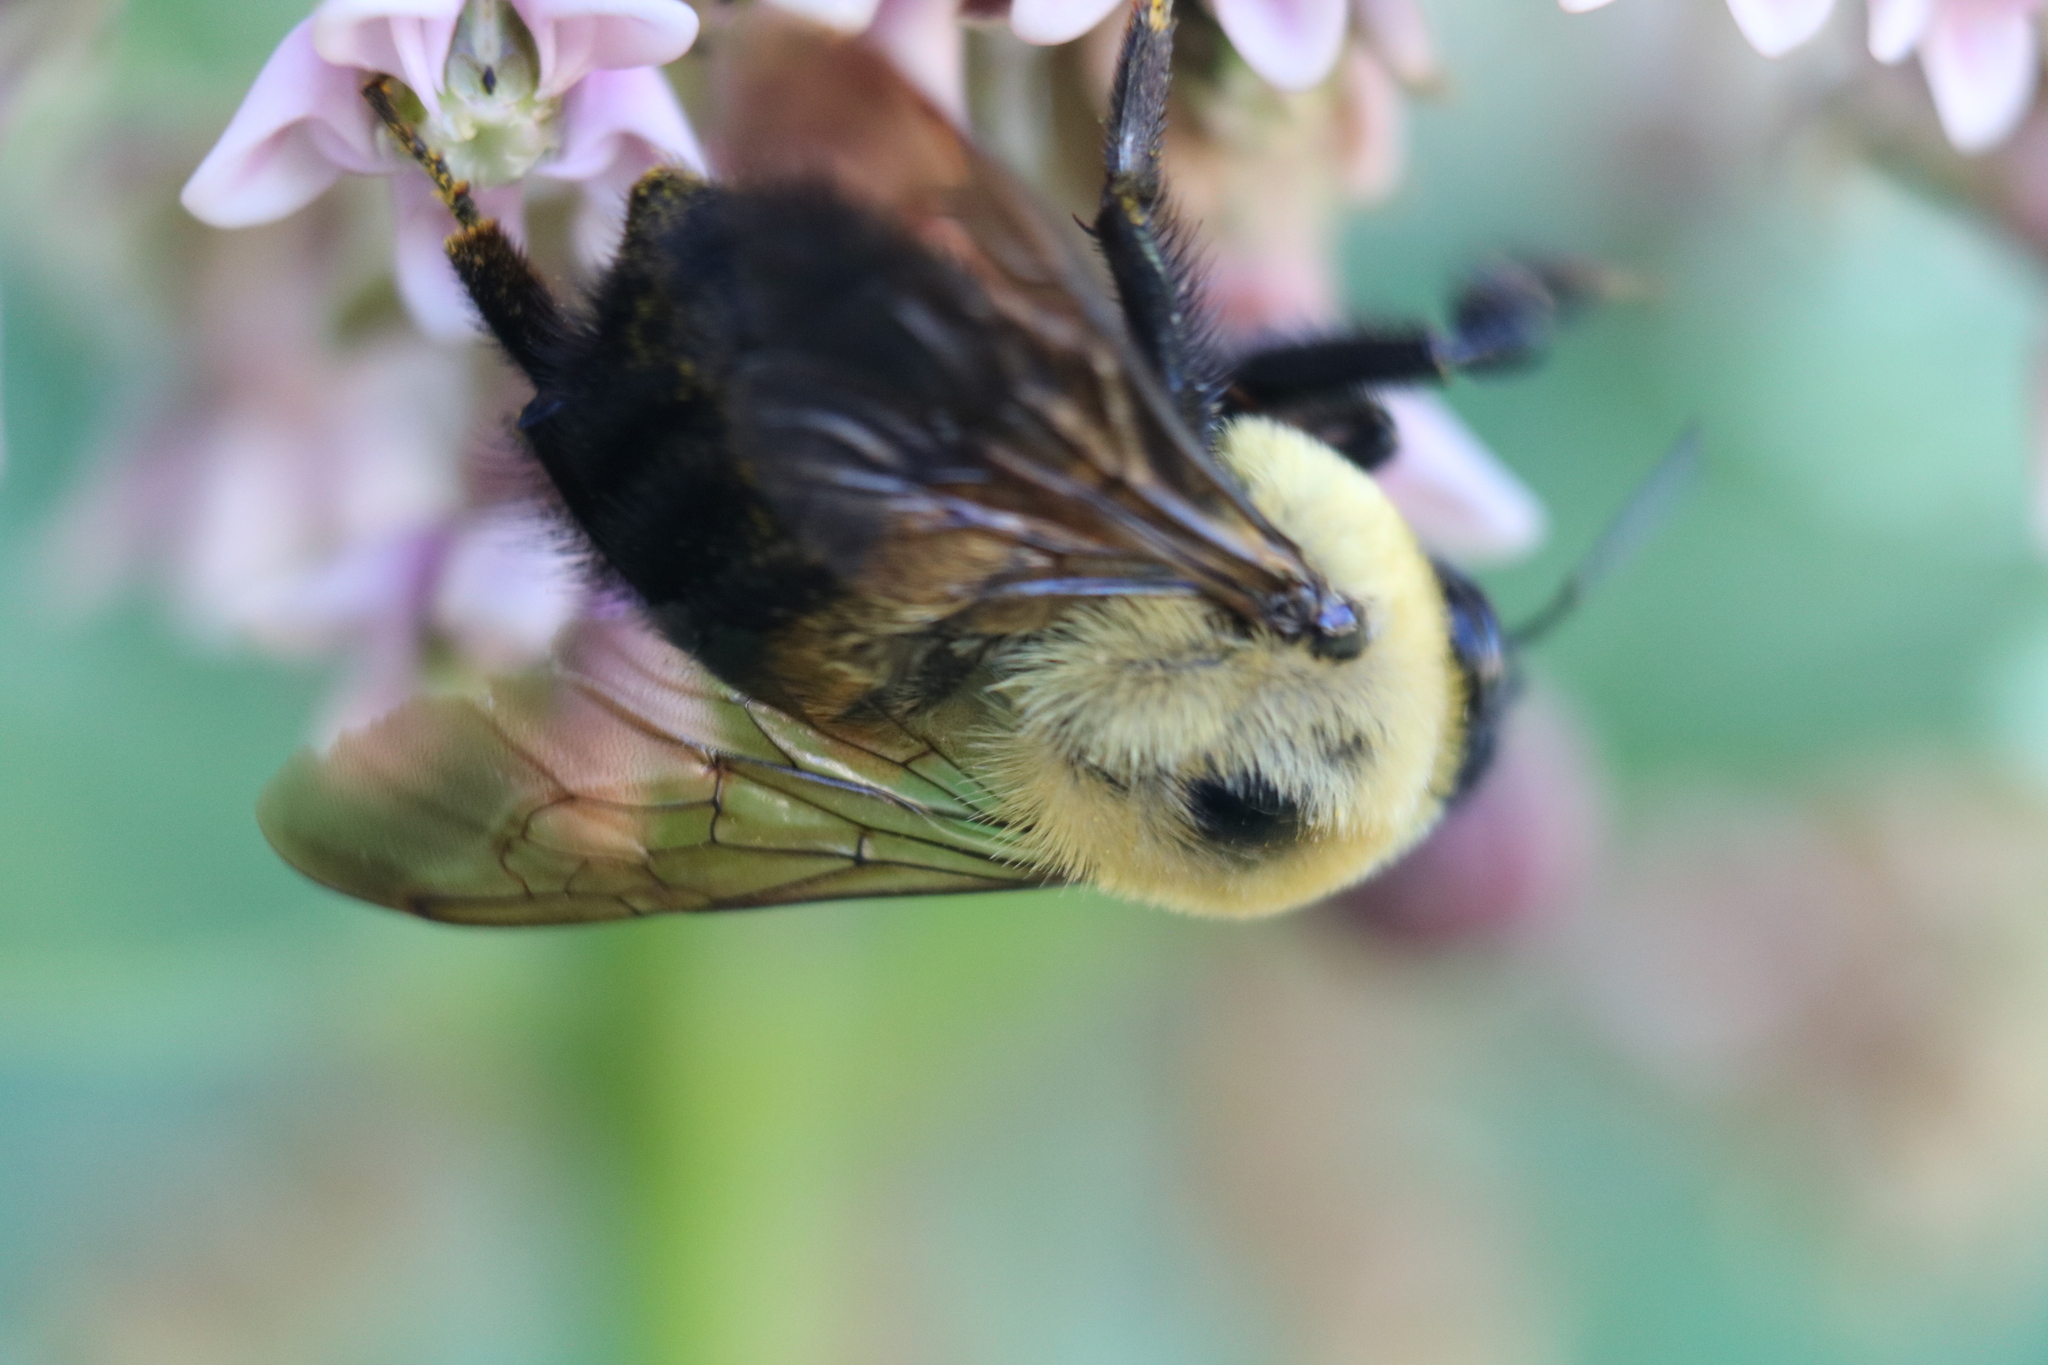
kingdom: Animalia
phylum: Arthropoda
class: Insecta
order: Hymenoptera
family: Apidae
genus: Bombus
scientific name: Bombus griseocollis
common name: Brown-belted bumble bee
